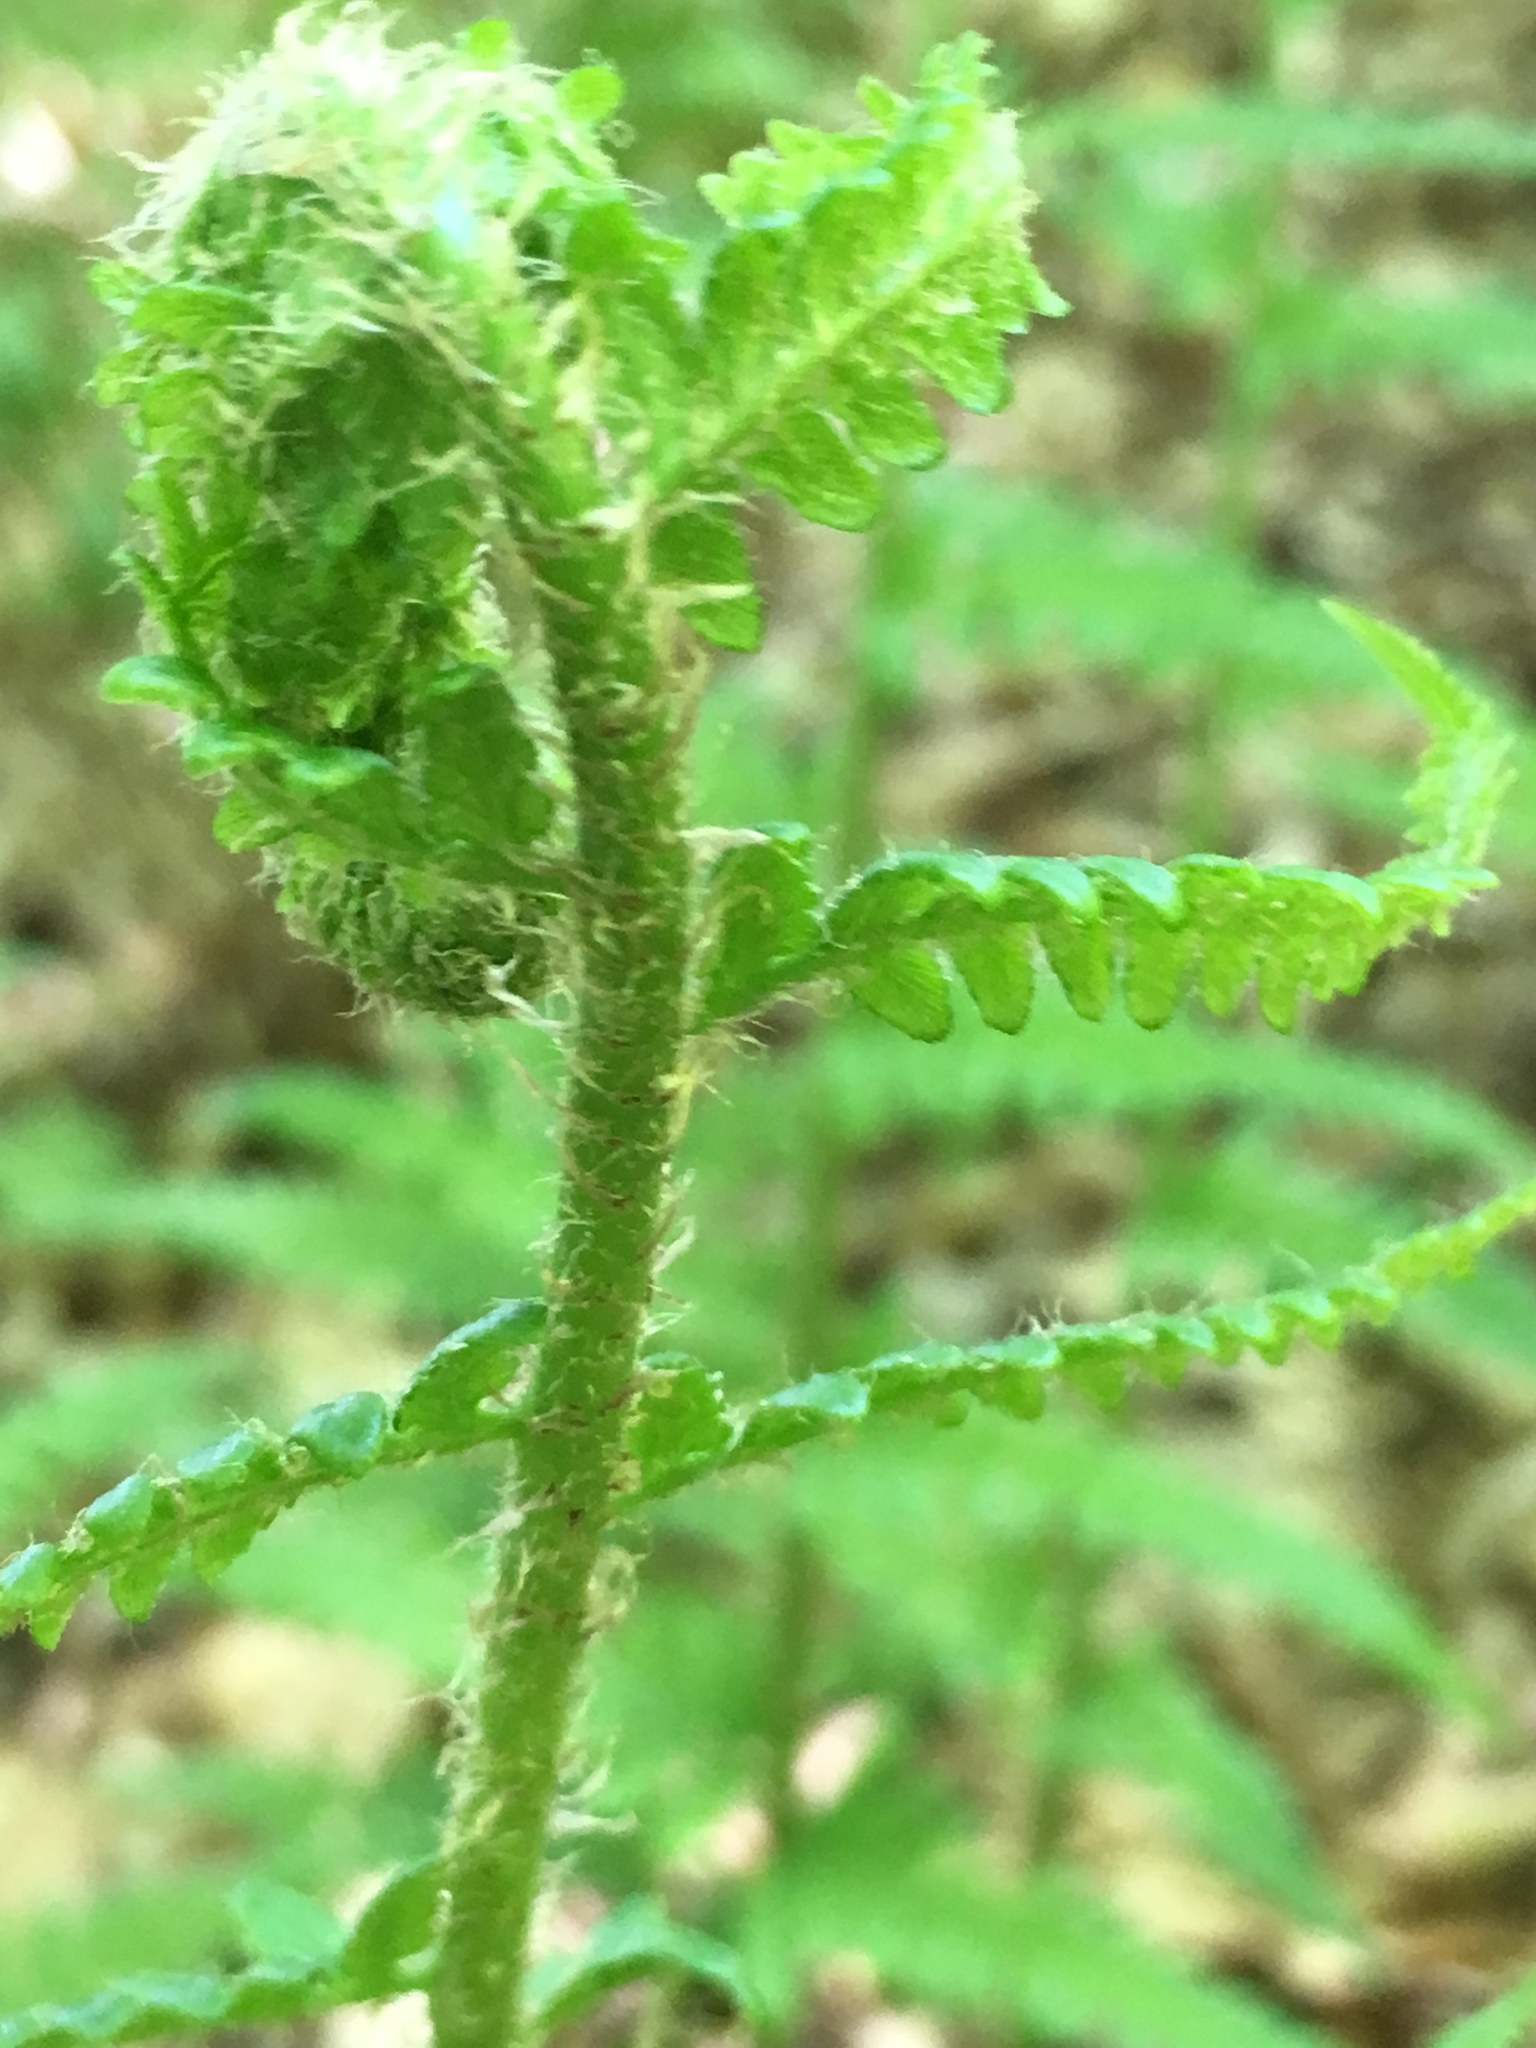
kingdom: Plantae
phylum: Tracheophyta
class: Polypodiopsida
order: Polypodiales
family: Dryopteridaceae
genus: Dryopteris
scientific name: Dryopteris filix-mas
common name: Male fern
